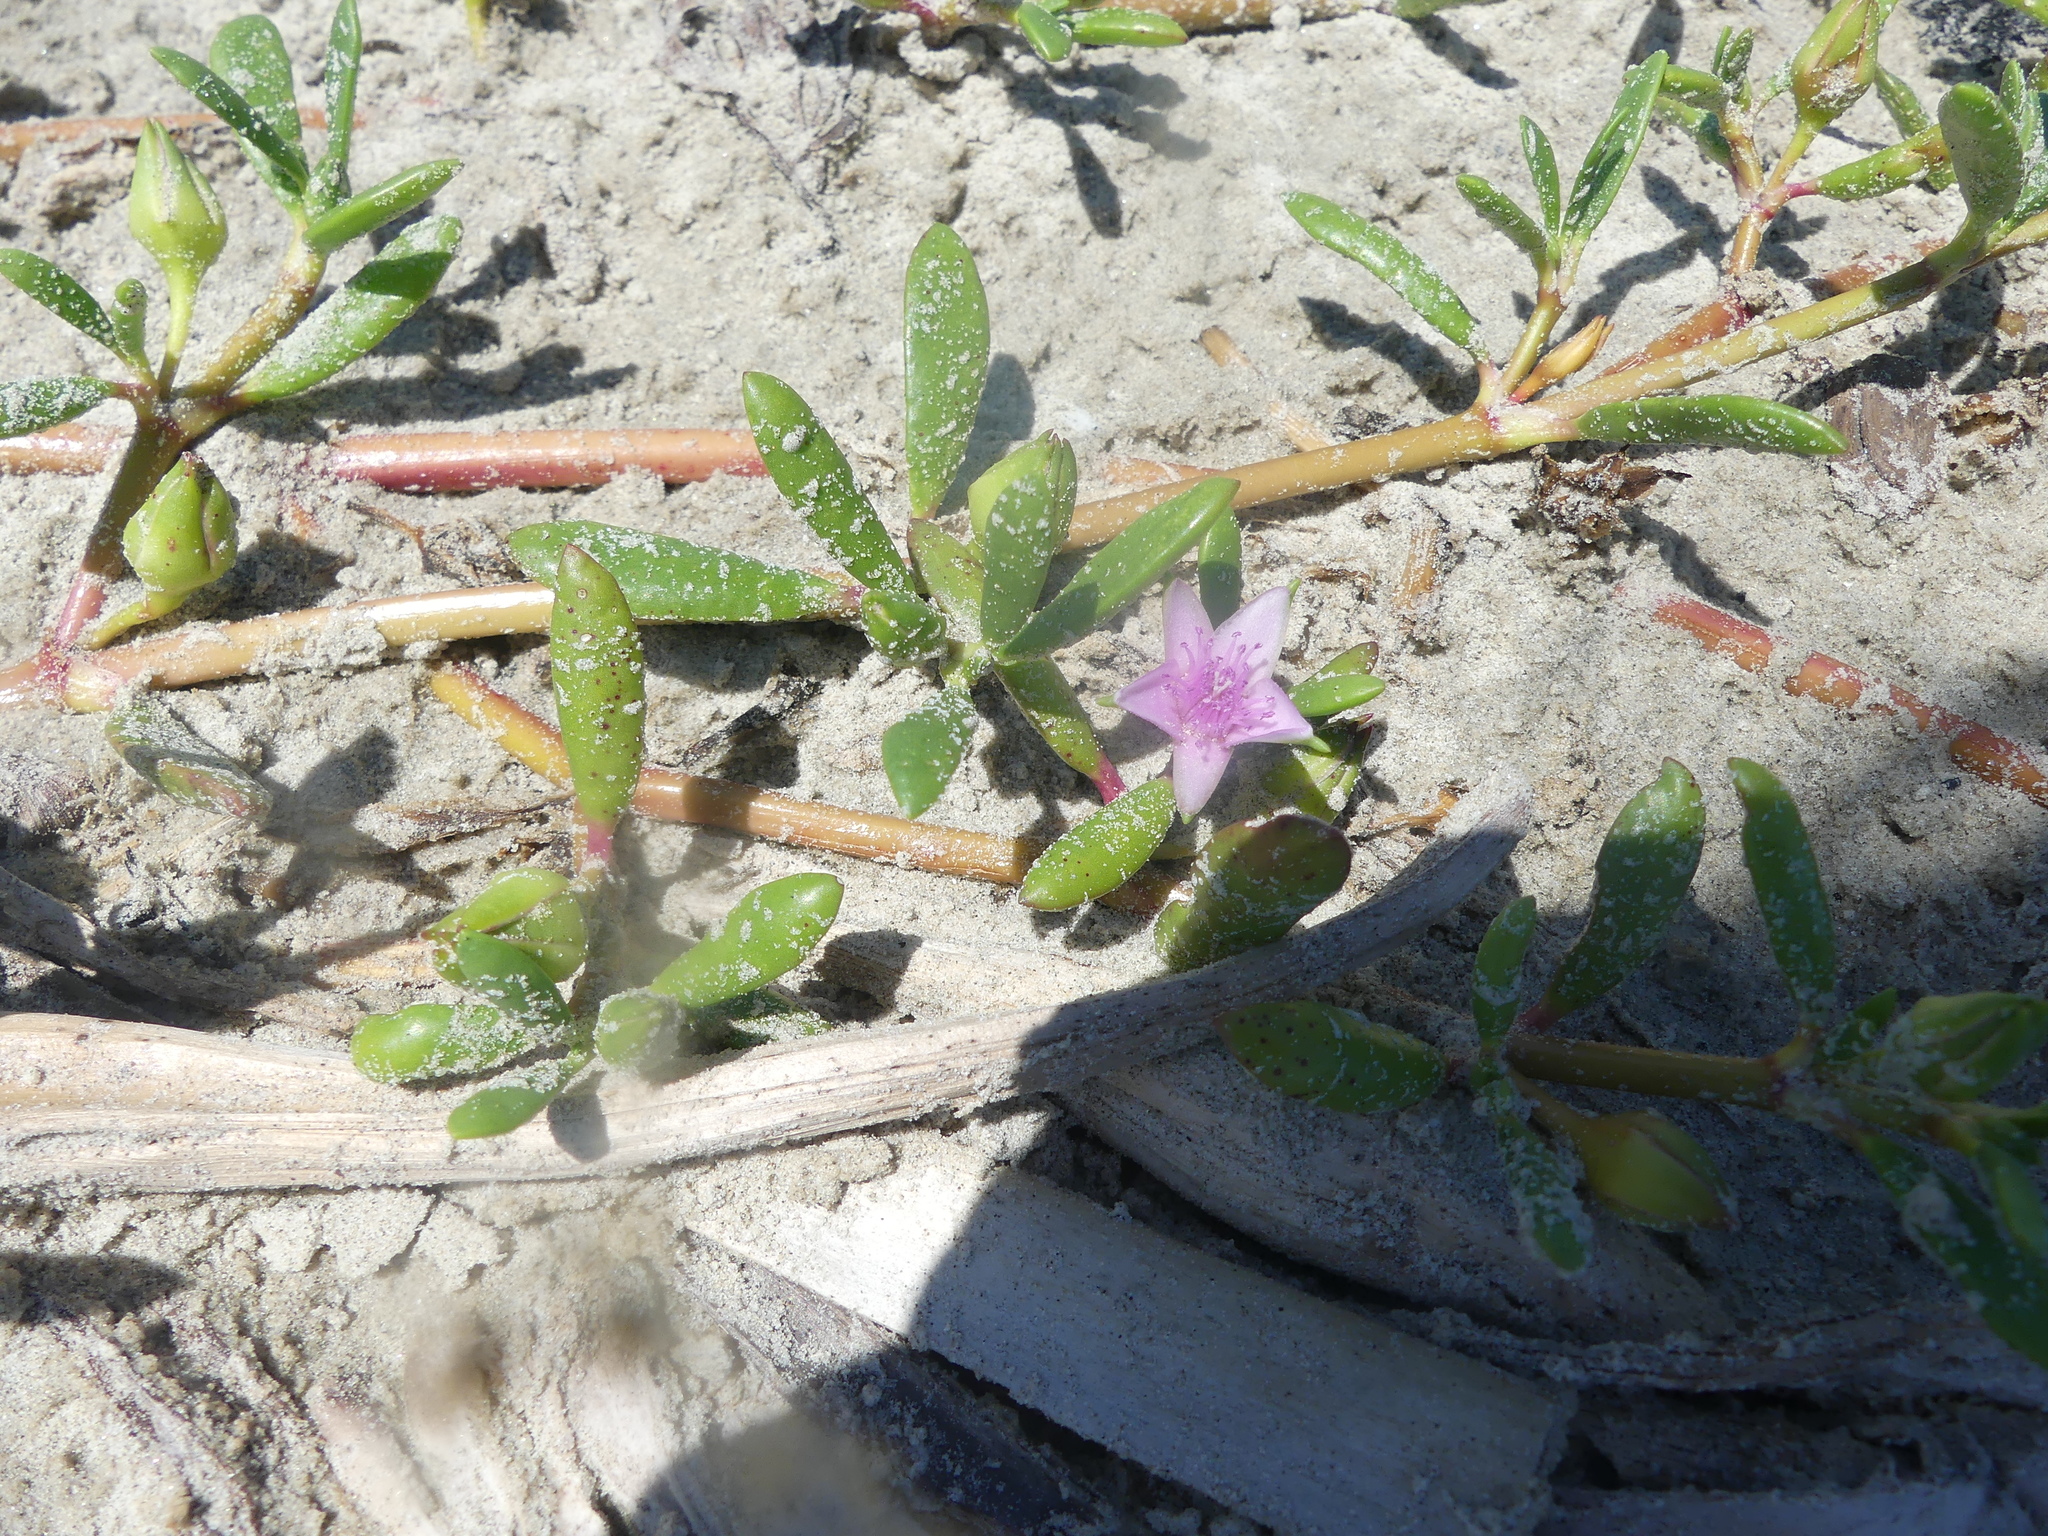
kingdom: Plantae
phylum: Tracheophyta
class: Magnoliopsida
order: Caryophyllales
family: Aizoaceae
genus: Sesuvium
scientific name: Sesuvium portulacastrum
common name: Sea-purslane
